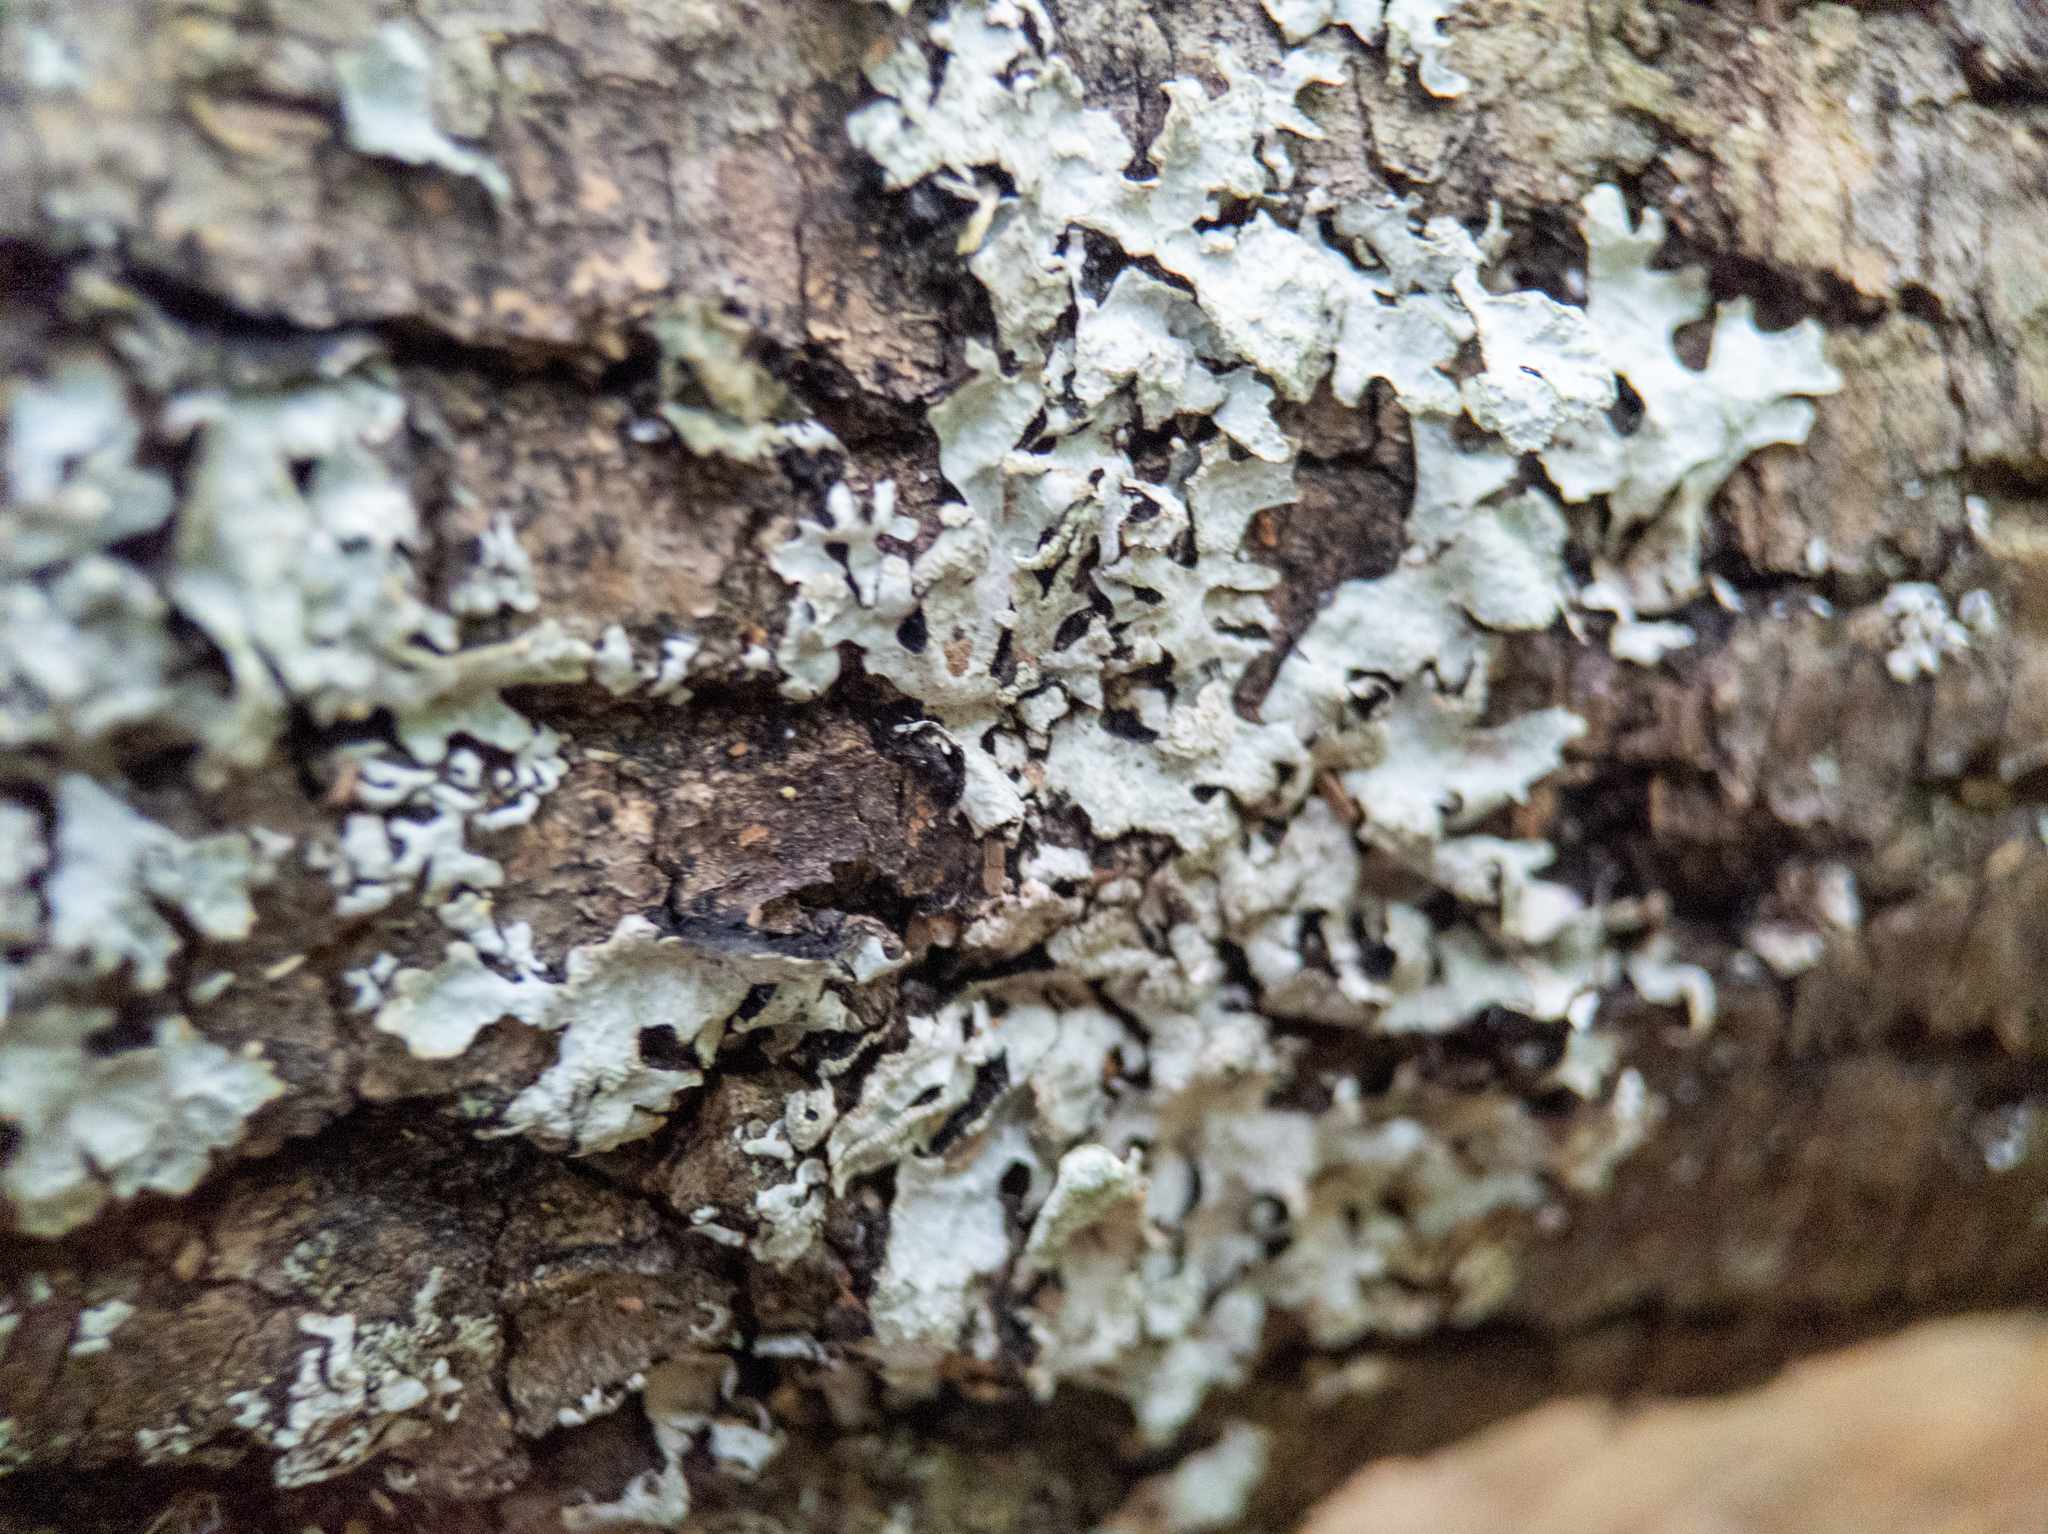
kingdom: Fungi
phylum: Ascomycota
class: Lecanoromycetes
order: Lecanorales
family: Parmeliaceae
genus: Parmelia
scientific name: Parmelia sulcata
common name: Netted shield lichen
